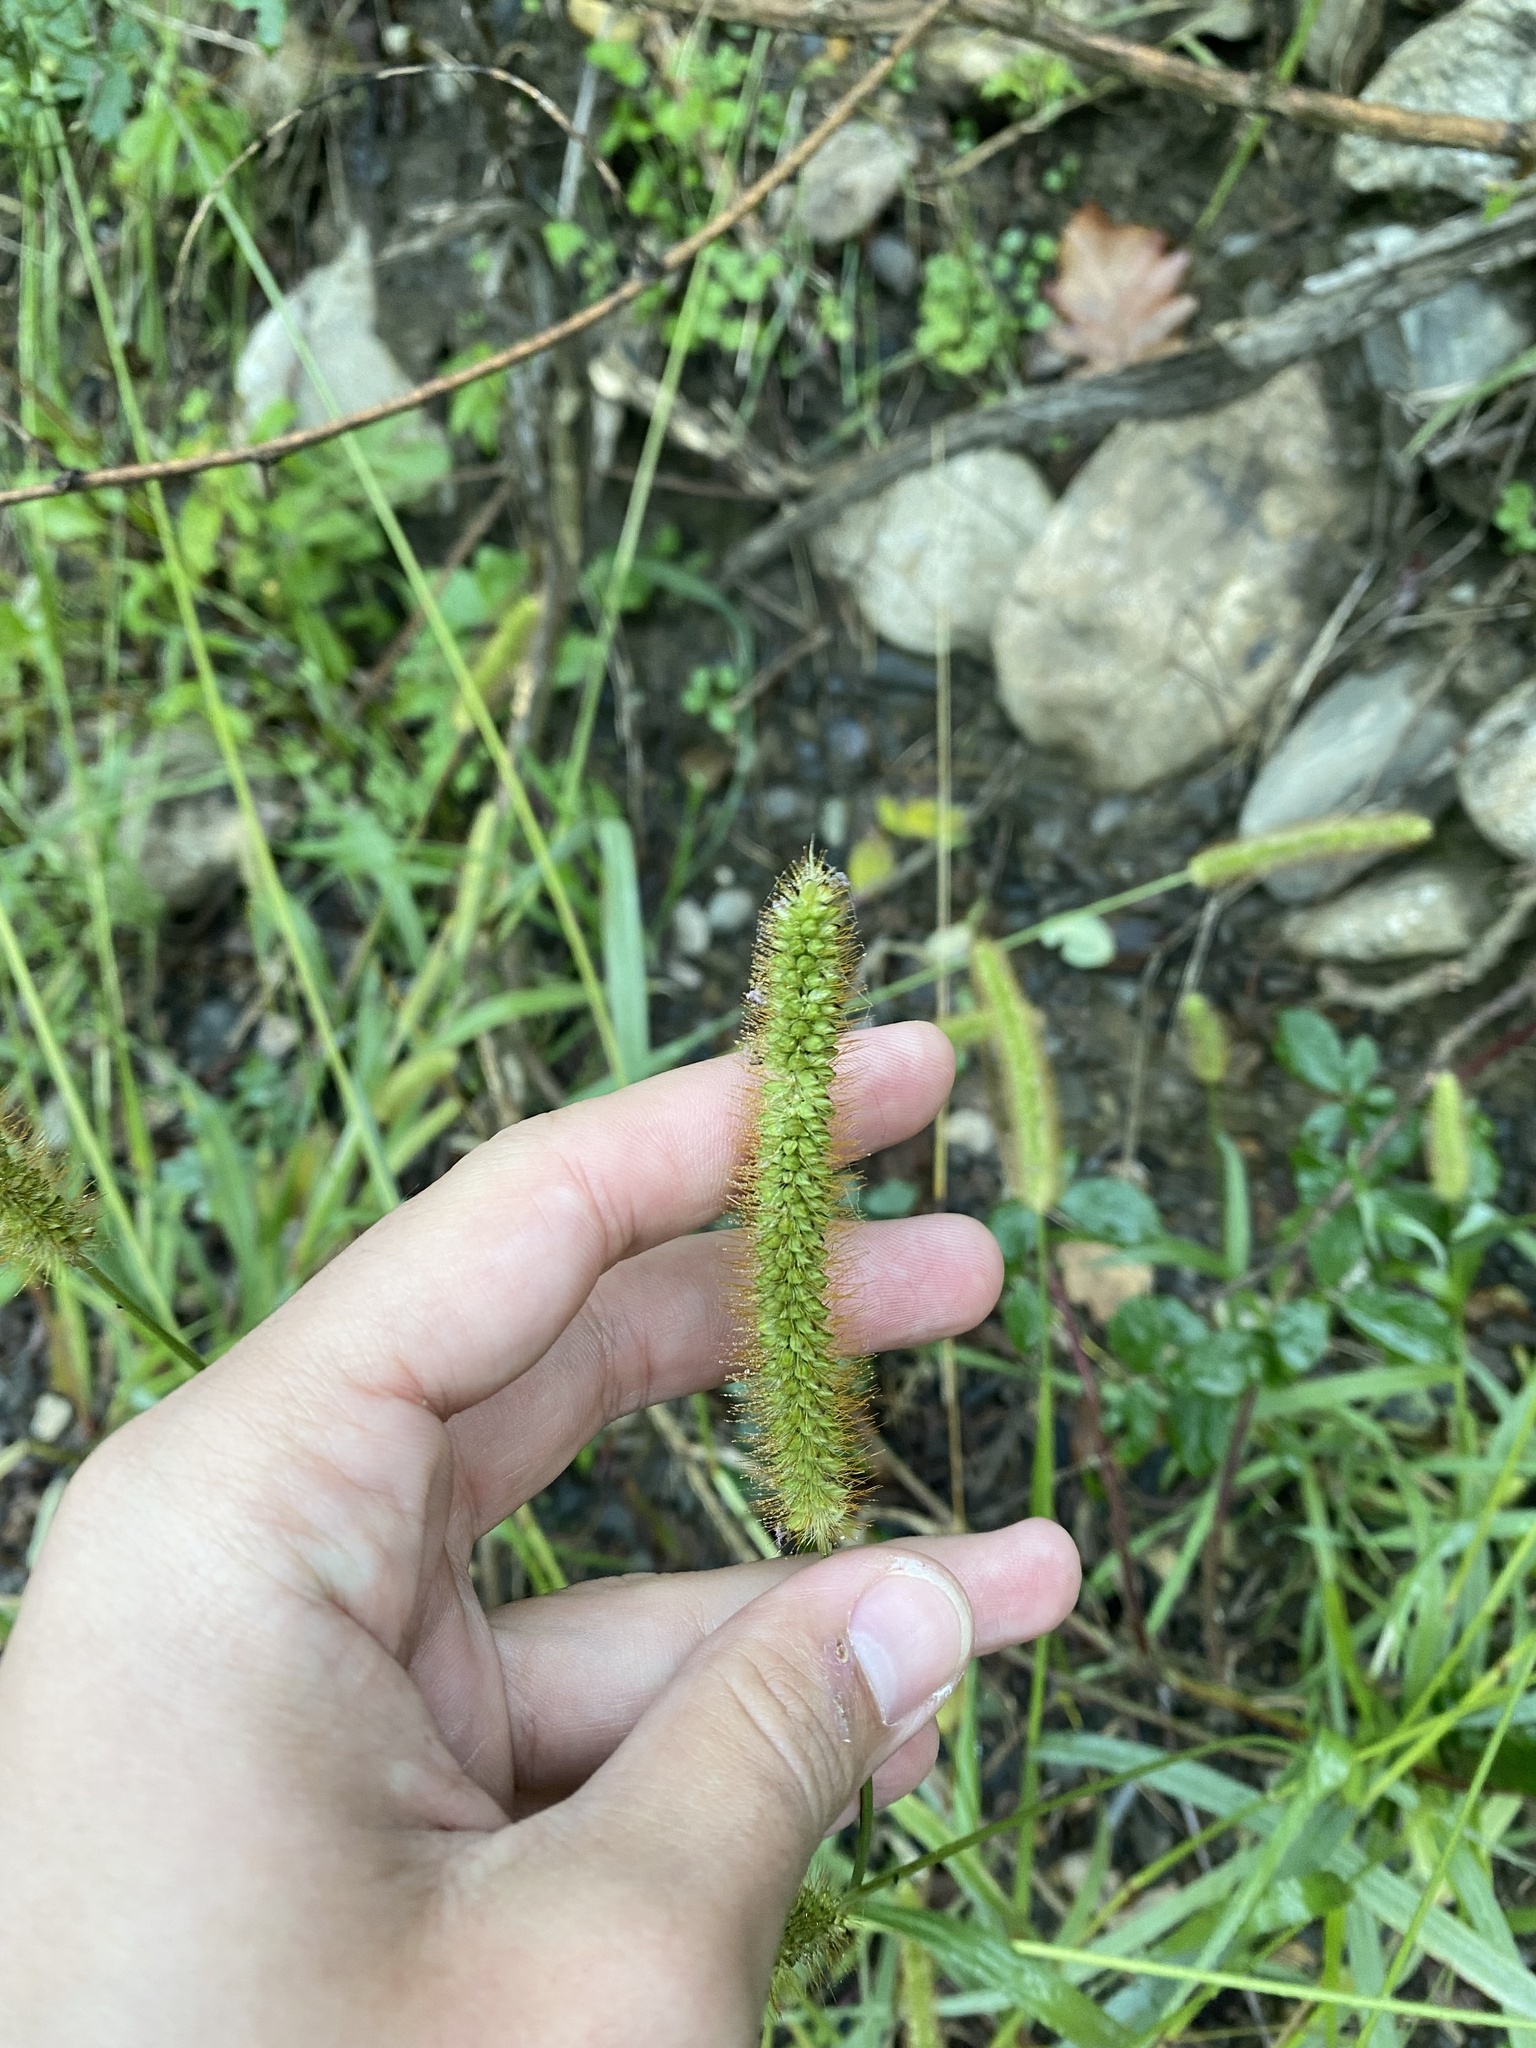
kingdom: Plantae
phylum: Tracheophyta
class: Liliopsida
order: Poales
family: Poaceae
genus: Setaria
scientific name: Setaria pumila
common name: Yellow bristle-grass
